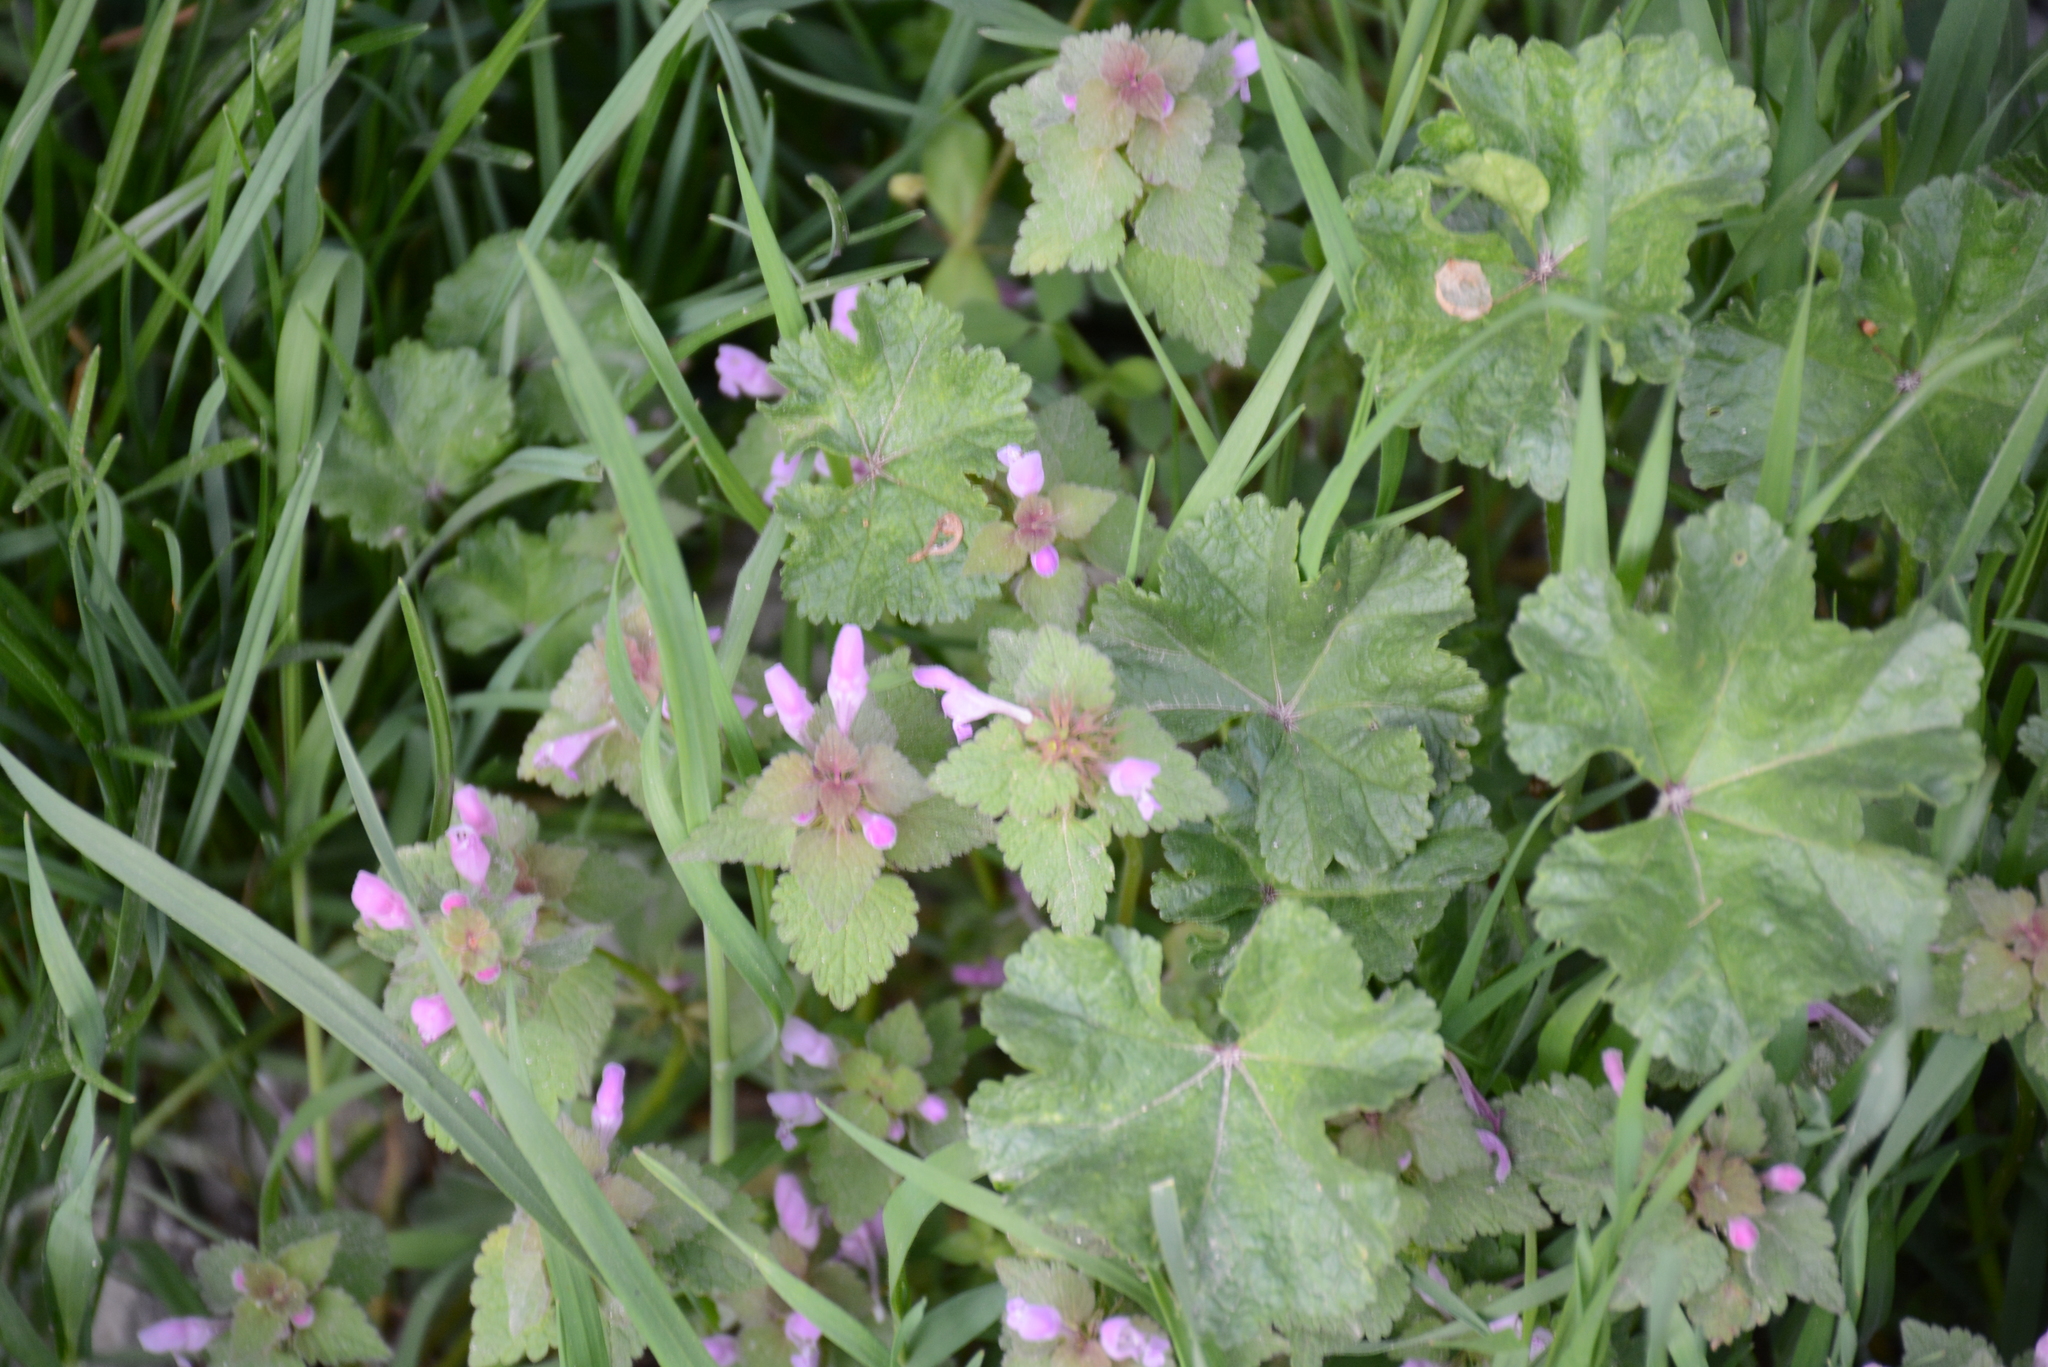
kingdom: Plantae
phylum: Tracheophyta
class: Magnoliopsida
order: Lamiales
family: Lamiaceae
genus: Lamium
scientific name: Lamium purpureum
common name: Red dead-nettle
